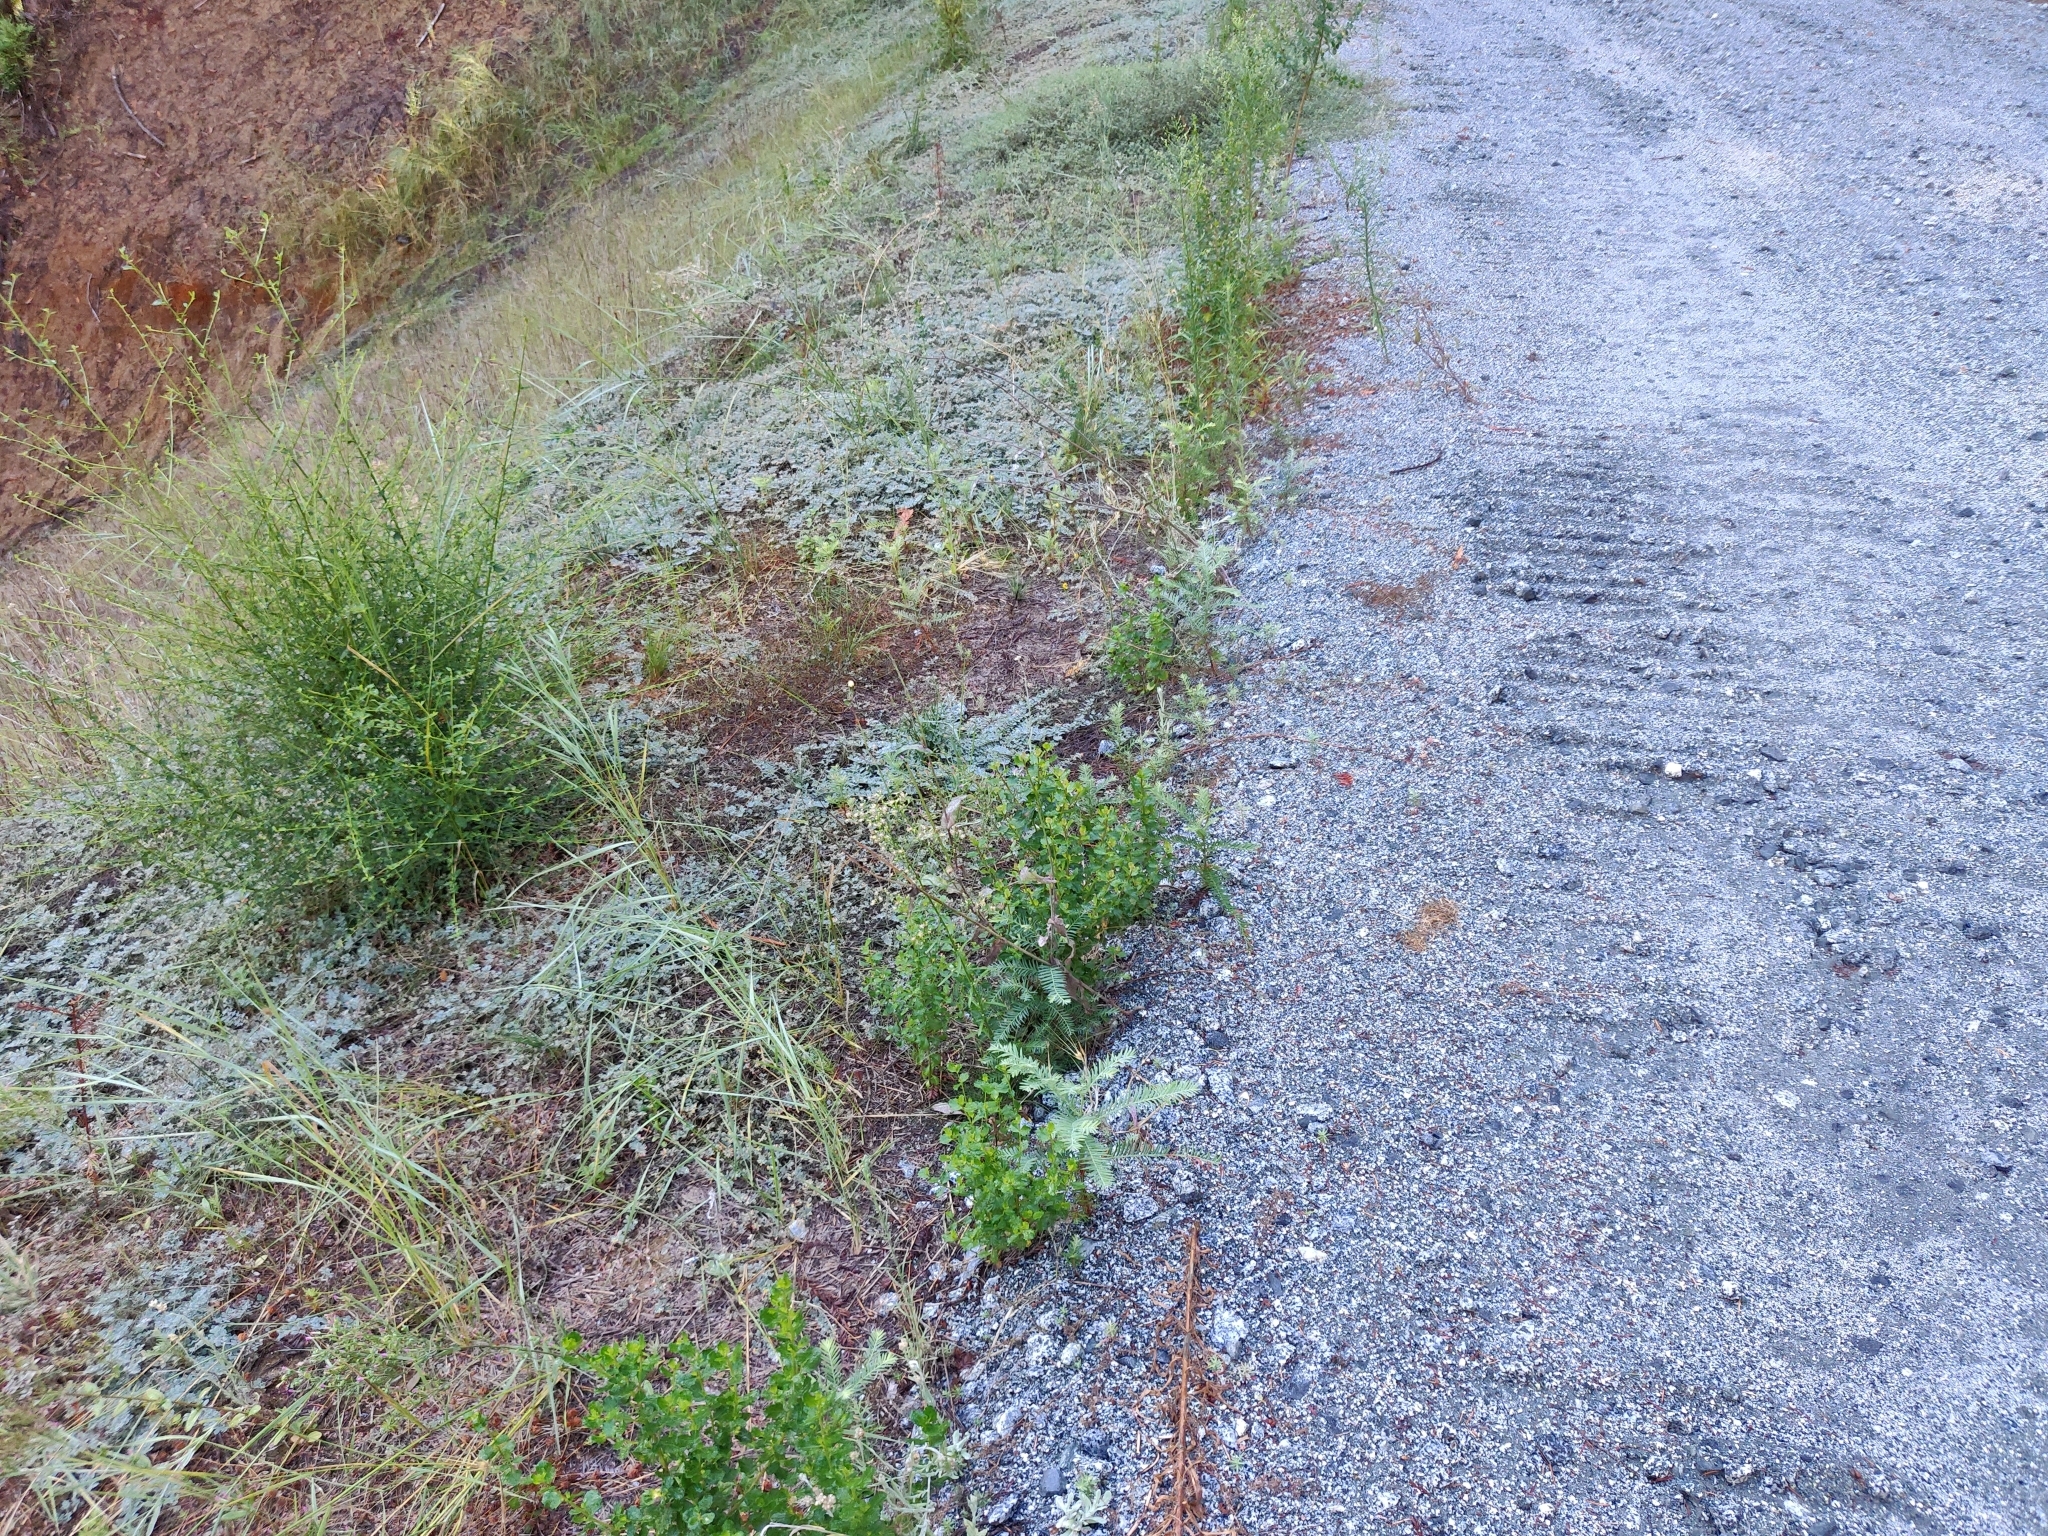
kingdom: Plantae
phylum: Tracheophyta
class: Pinopsida
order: Pinales
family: Cupressaceae
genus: Sequoia
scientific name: Sequoia sempervirens
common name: Coast redwood
